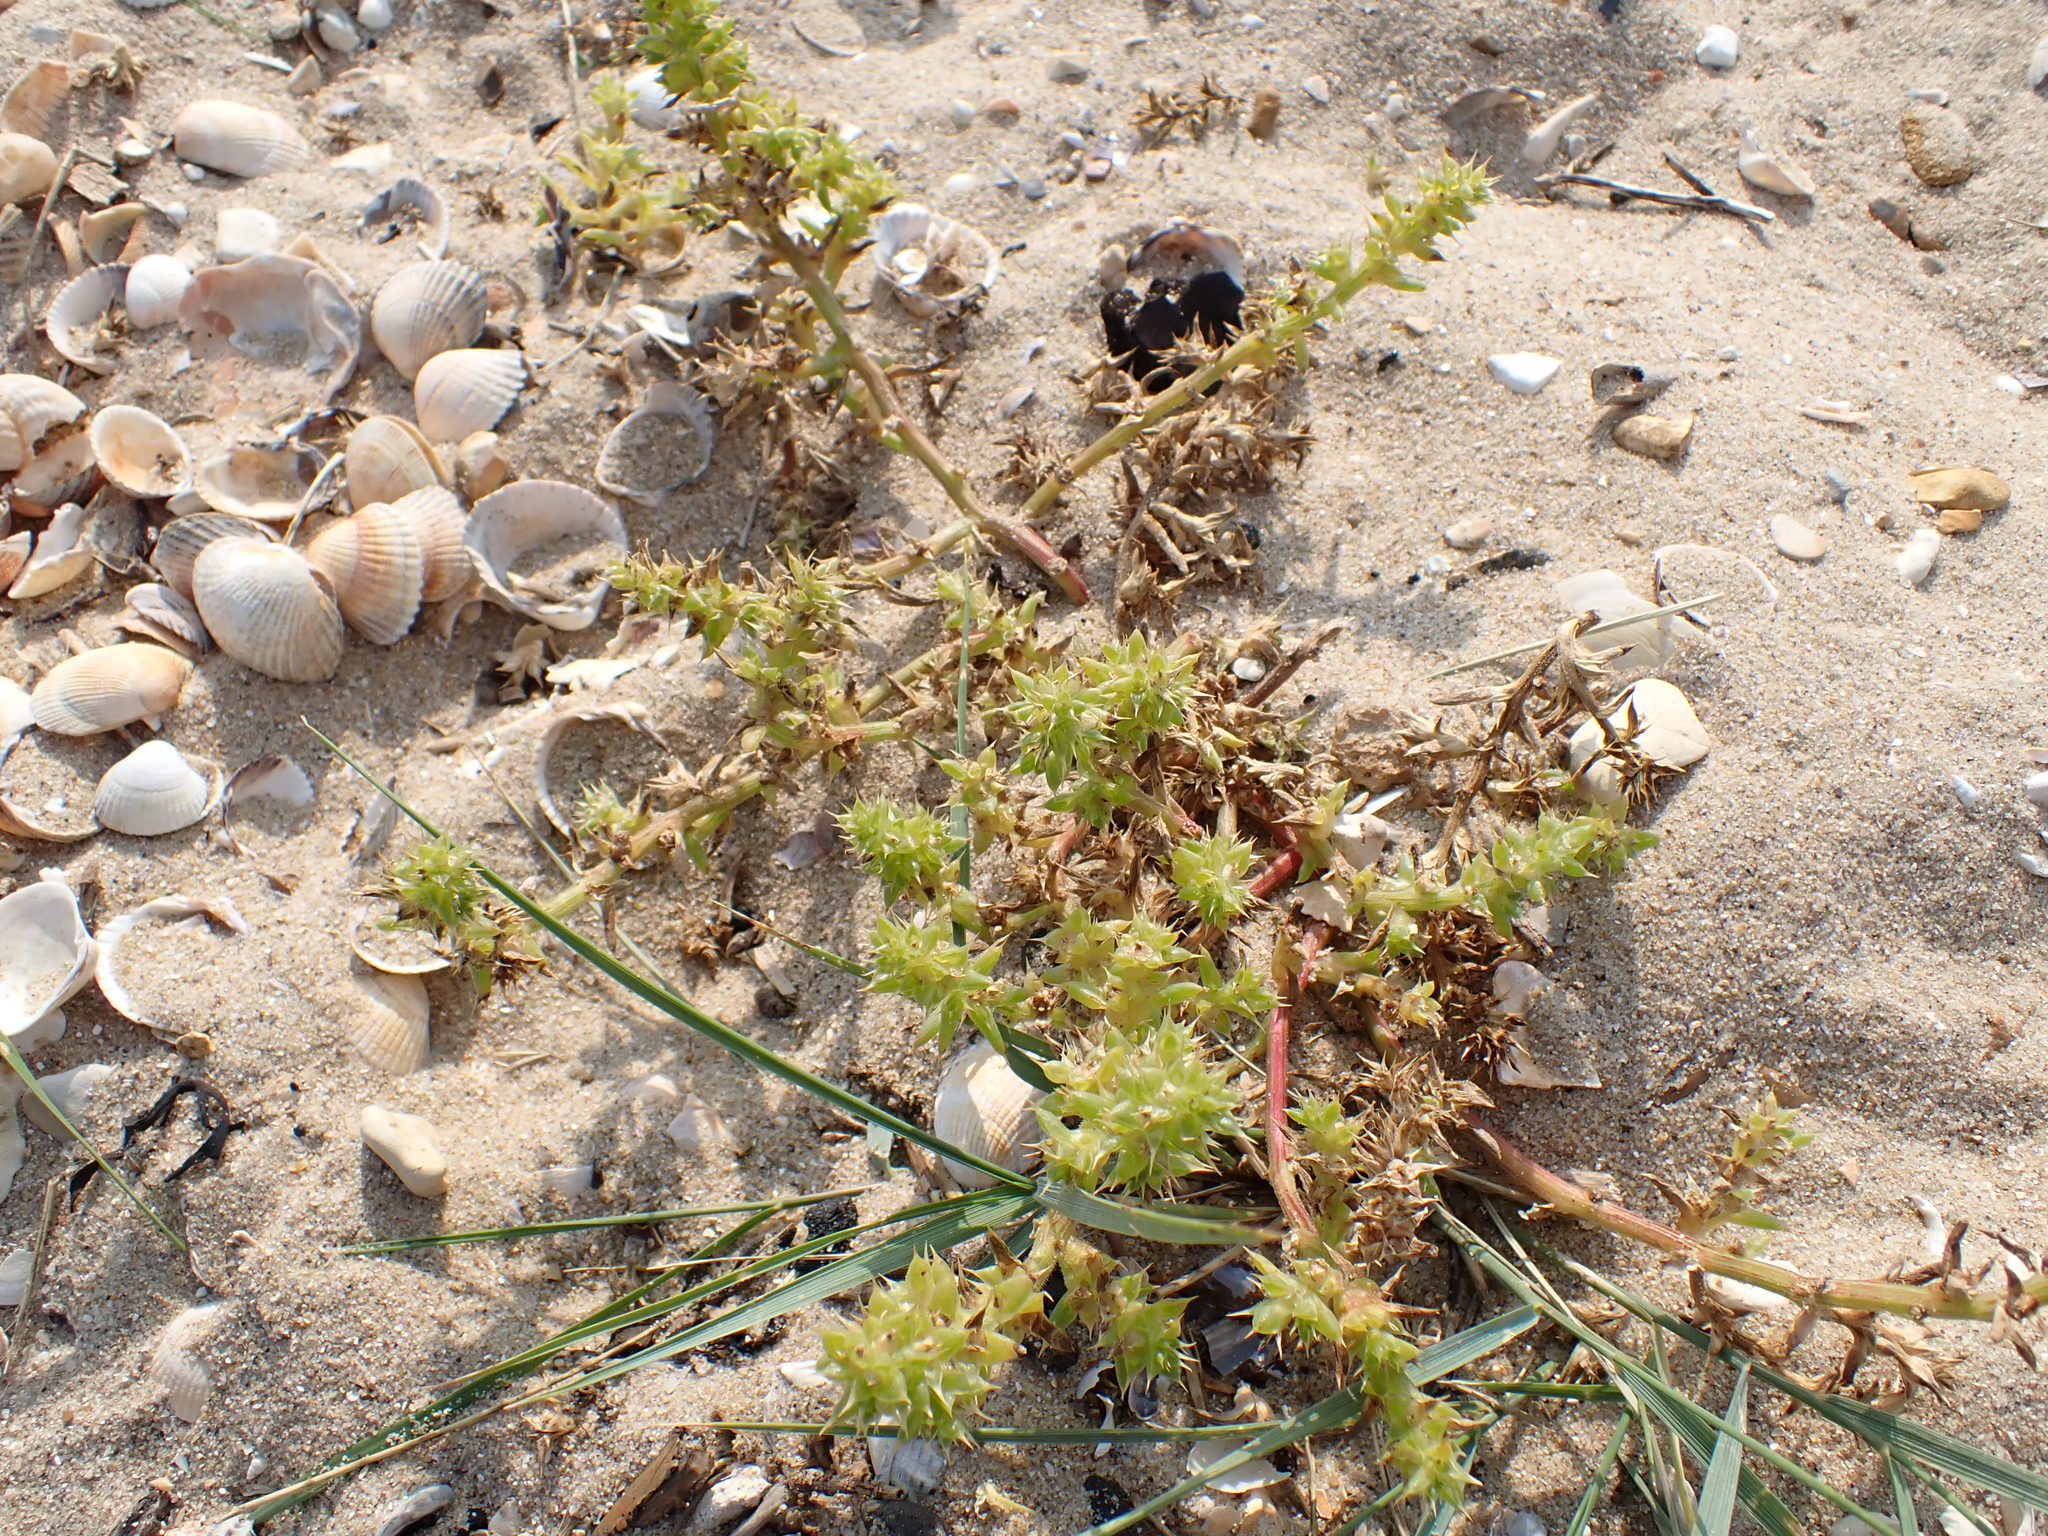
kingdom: Plantae
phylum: Tracheophyta
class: Magnoliopsida
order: Caryophyllales
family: Amaranthaceae
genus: Salsola
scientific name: Salsola kali
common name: Saltwort
